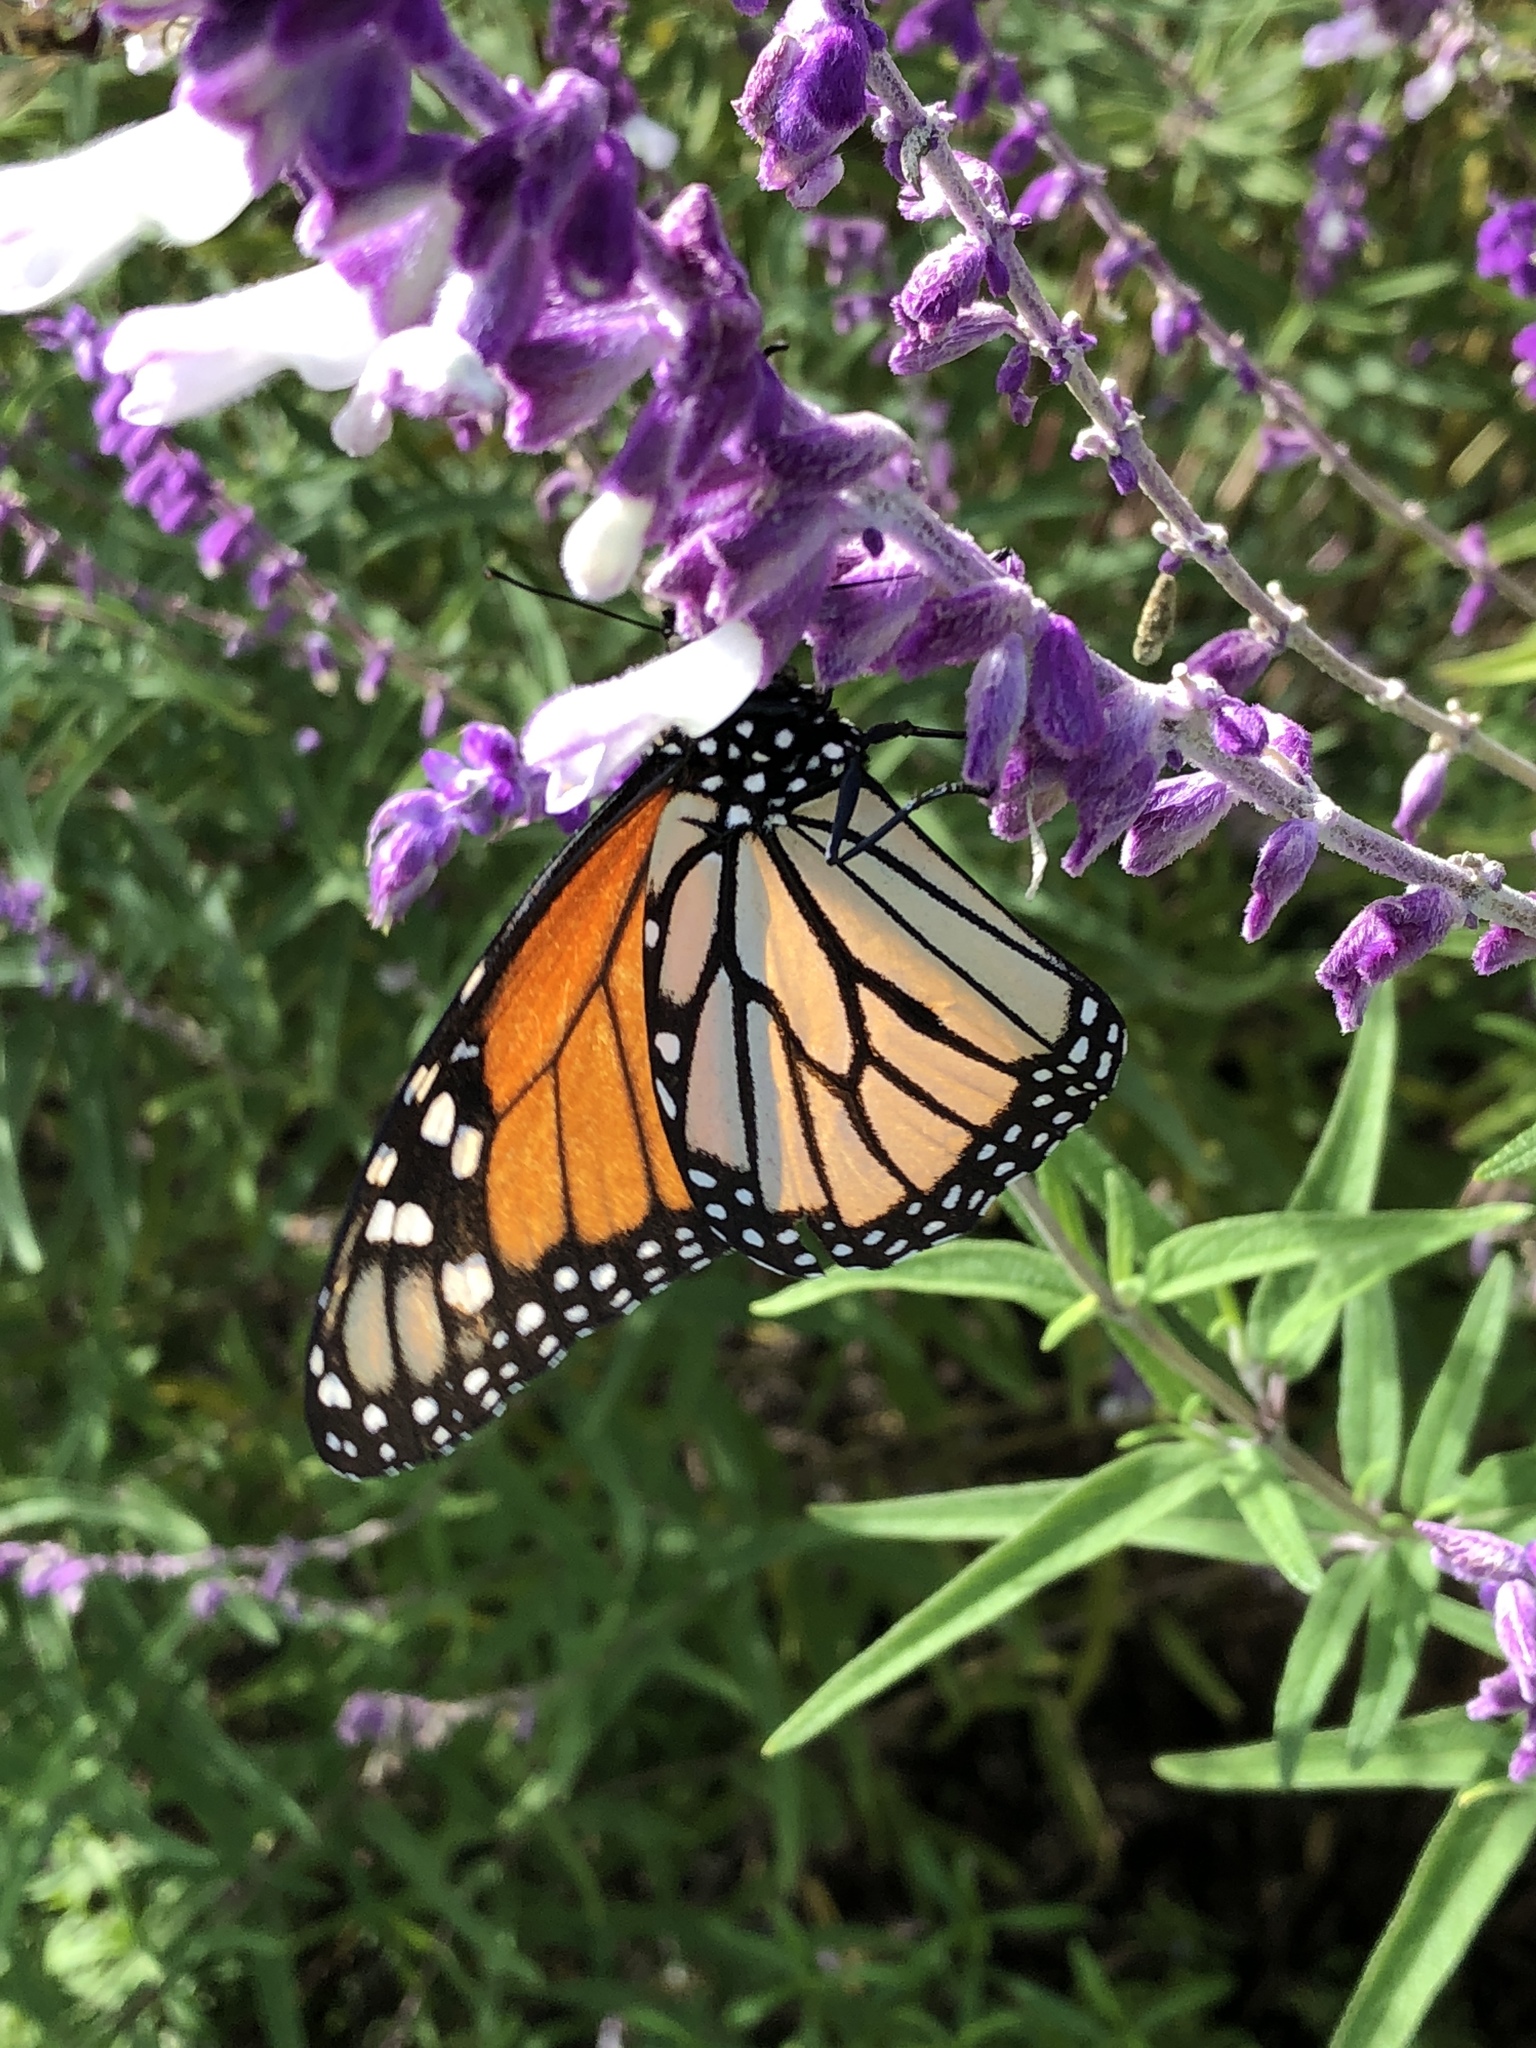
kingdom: Animalia
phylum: Arthropoda
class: Insecta
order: Lepidoptera
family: Nymphalidae
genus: Danaus
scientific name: Danaus plexippus
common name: Monarch
